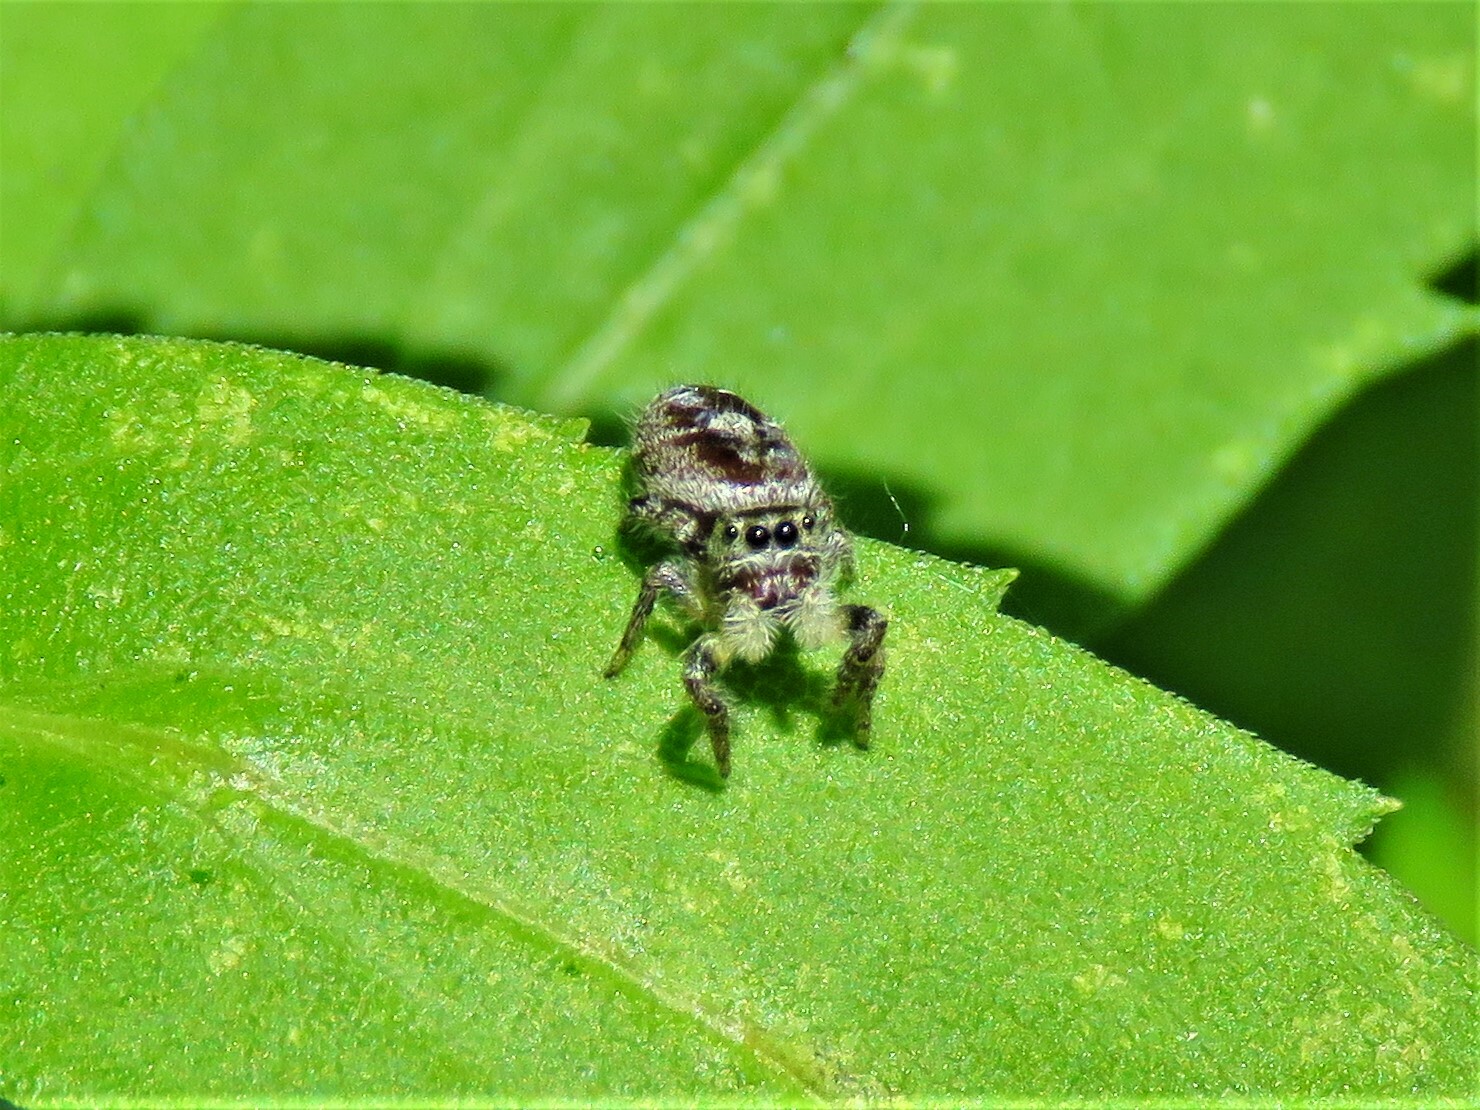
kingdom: Animalia
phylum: Arthropoda
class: Arachnida
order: Araneae
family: Salticidae
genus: Phidippus
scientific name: Phidippus carolinensis
